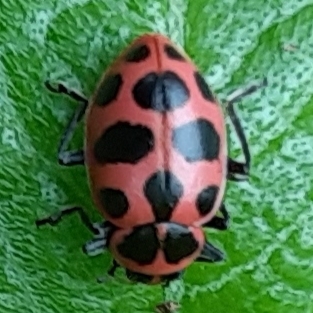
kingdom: Animalia
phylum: Arthropoda
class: Insecta
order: Coleoptera
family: Coccinellidae
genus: Coleomegilla
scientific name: Coleomegilla maculata
